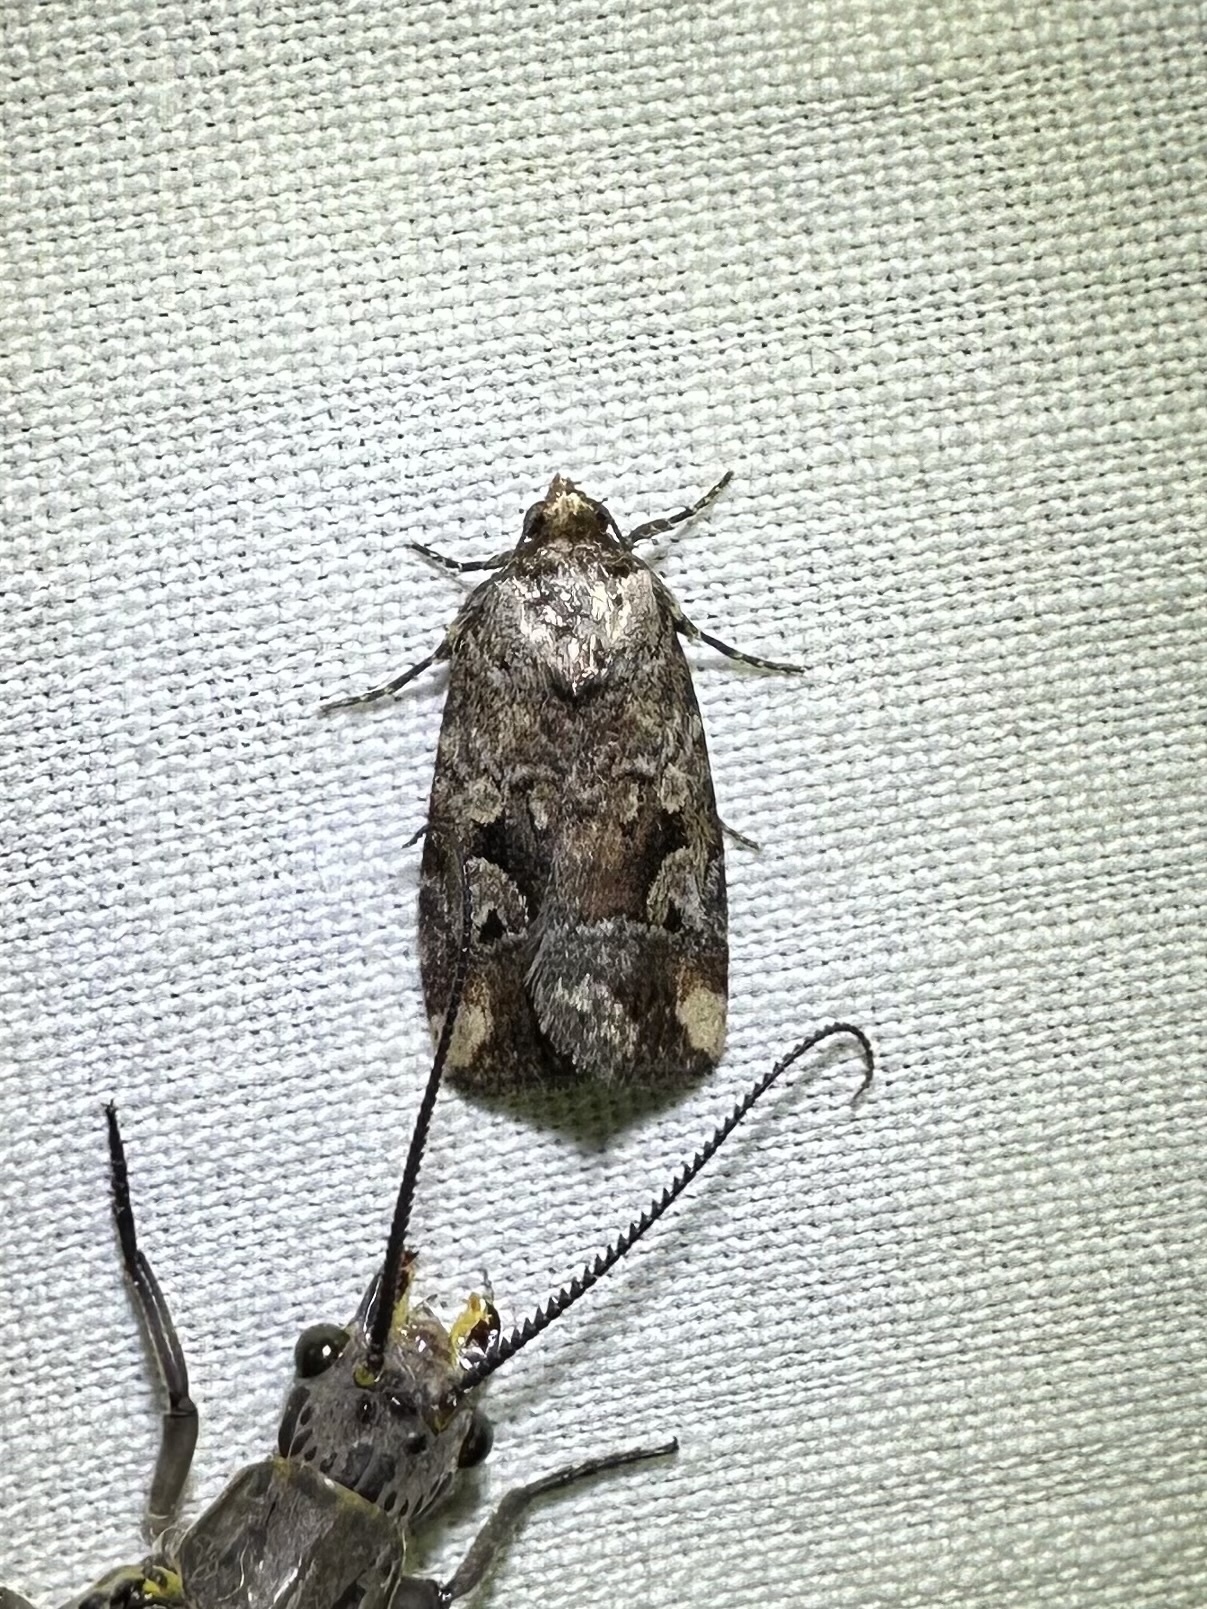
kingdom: Animalia
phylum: Arthropoda
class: Insecta
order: Lepidoptera
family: Noctuidae
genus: Elaphria
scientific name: Elaphria alapallida
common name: Pale-winged midget
